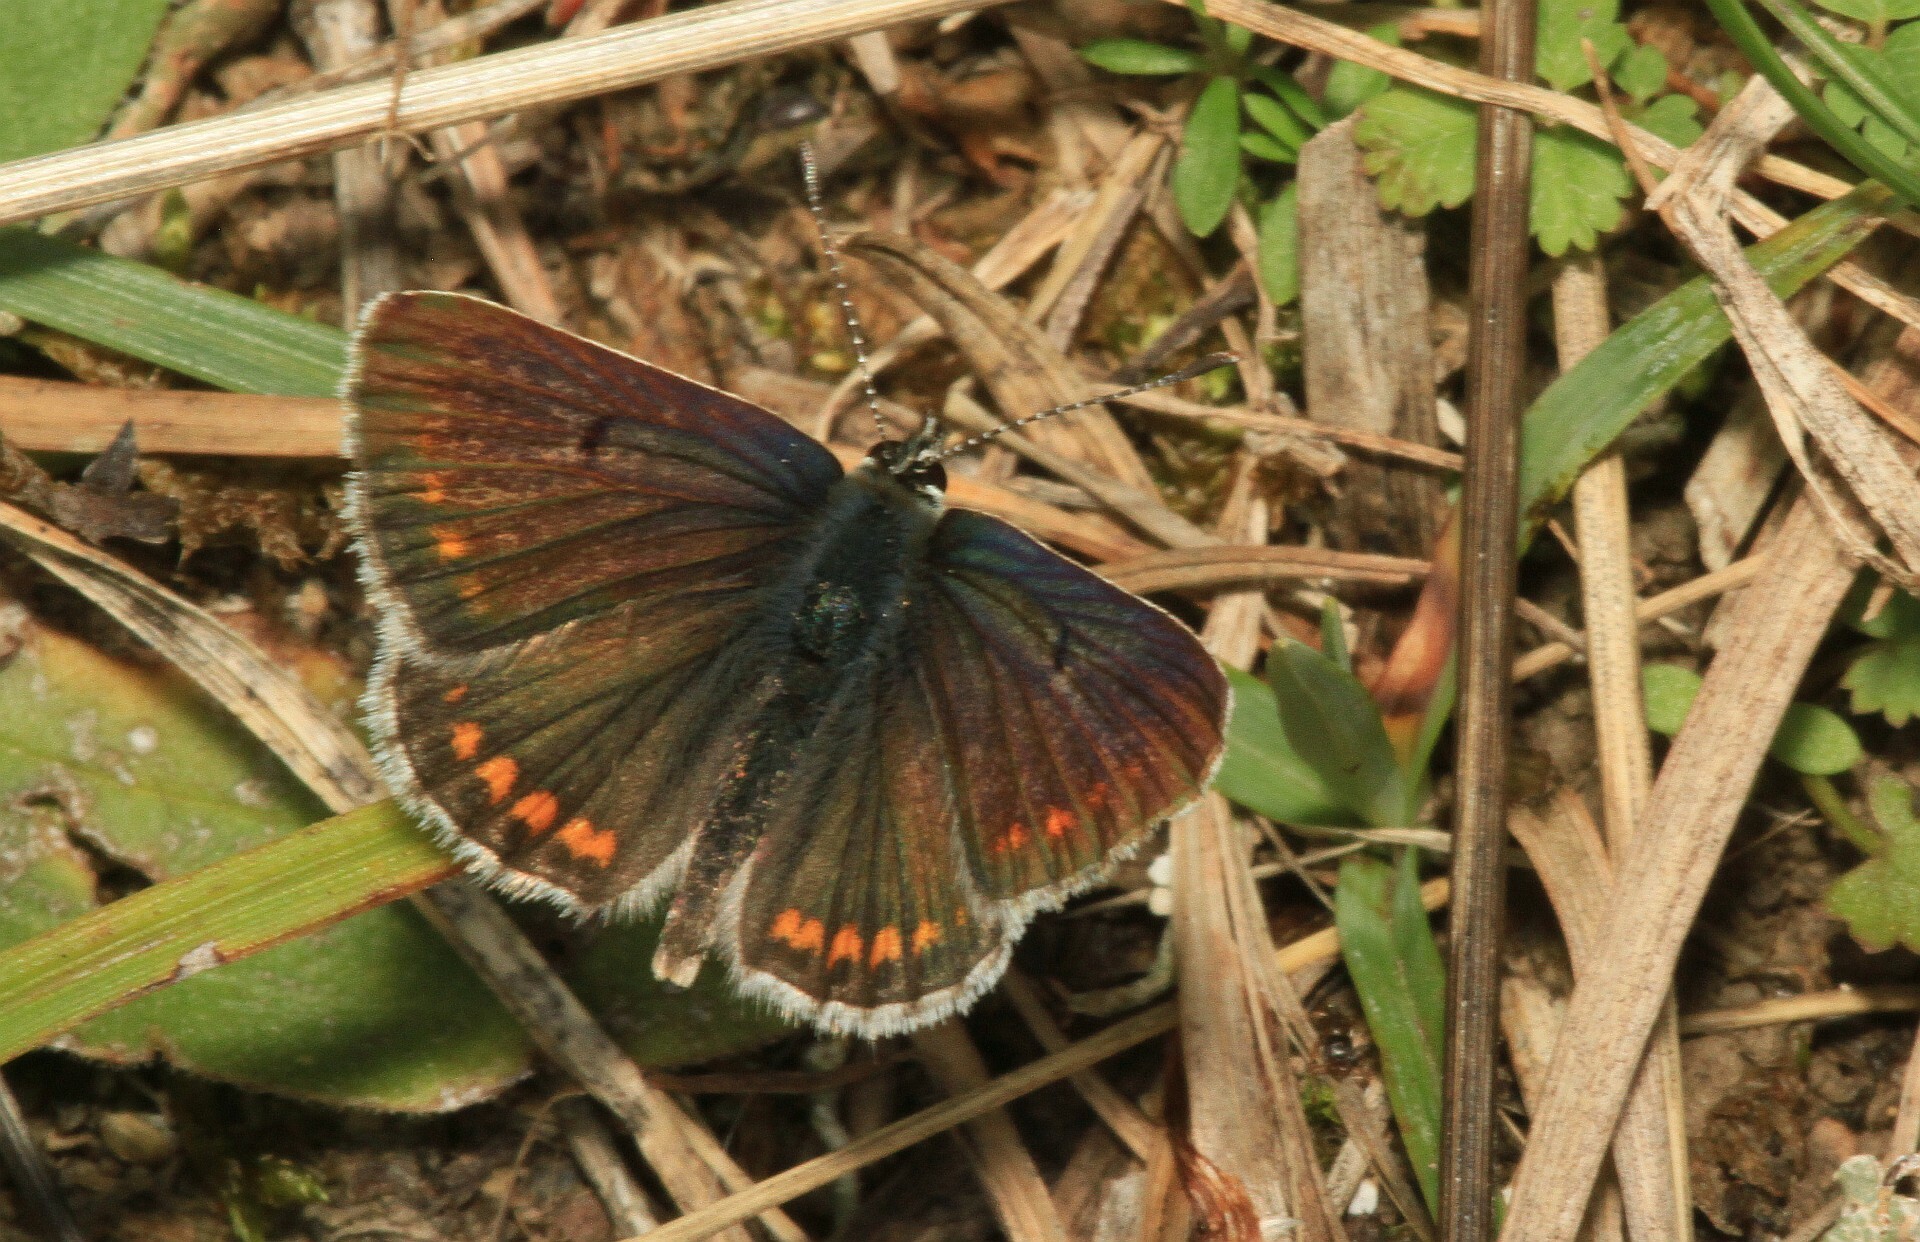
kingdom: Animalia
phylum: Arthropoda
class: Insecta
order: Lepidoptera
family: Lycaenidae
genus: Aricia
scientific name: Aricia agestis
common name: Brown argus
